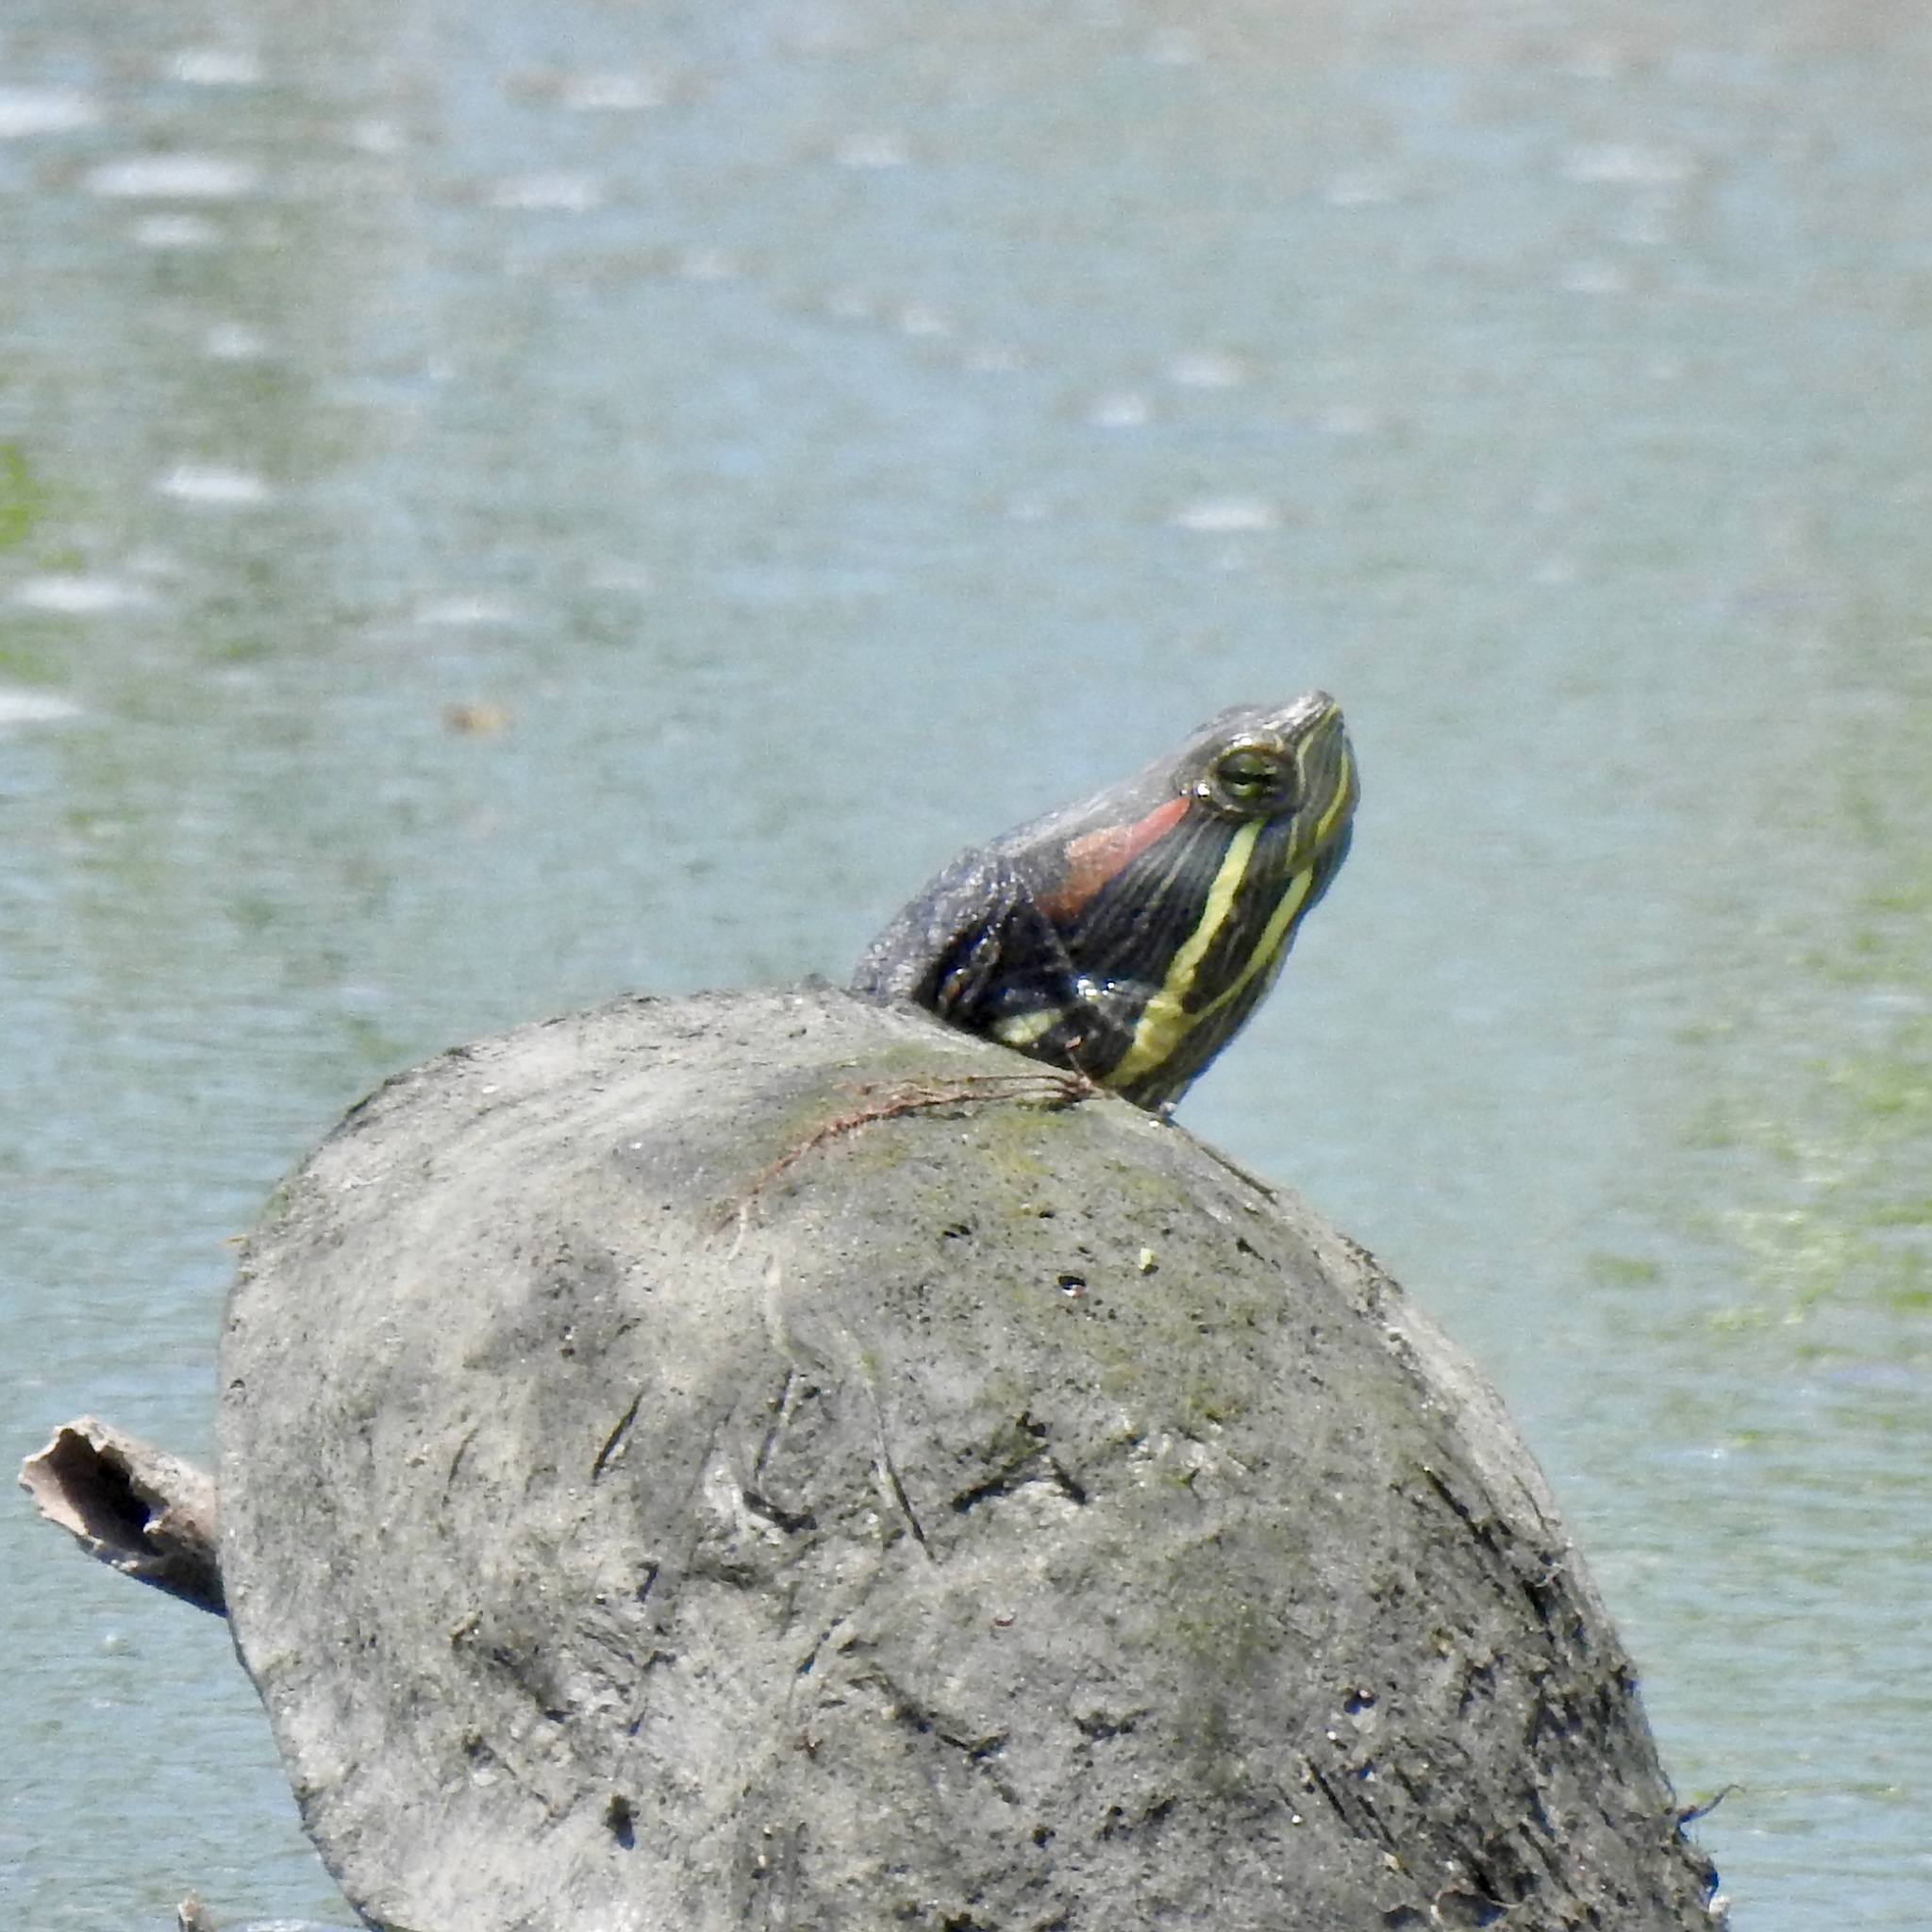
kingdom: Animalia
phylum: Chordata
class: Testudines
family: Emydidae
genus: Trachemys
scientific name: Trachemys scripta
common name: Slider
